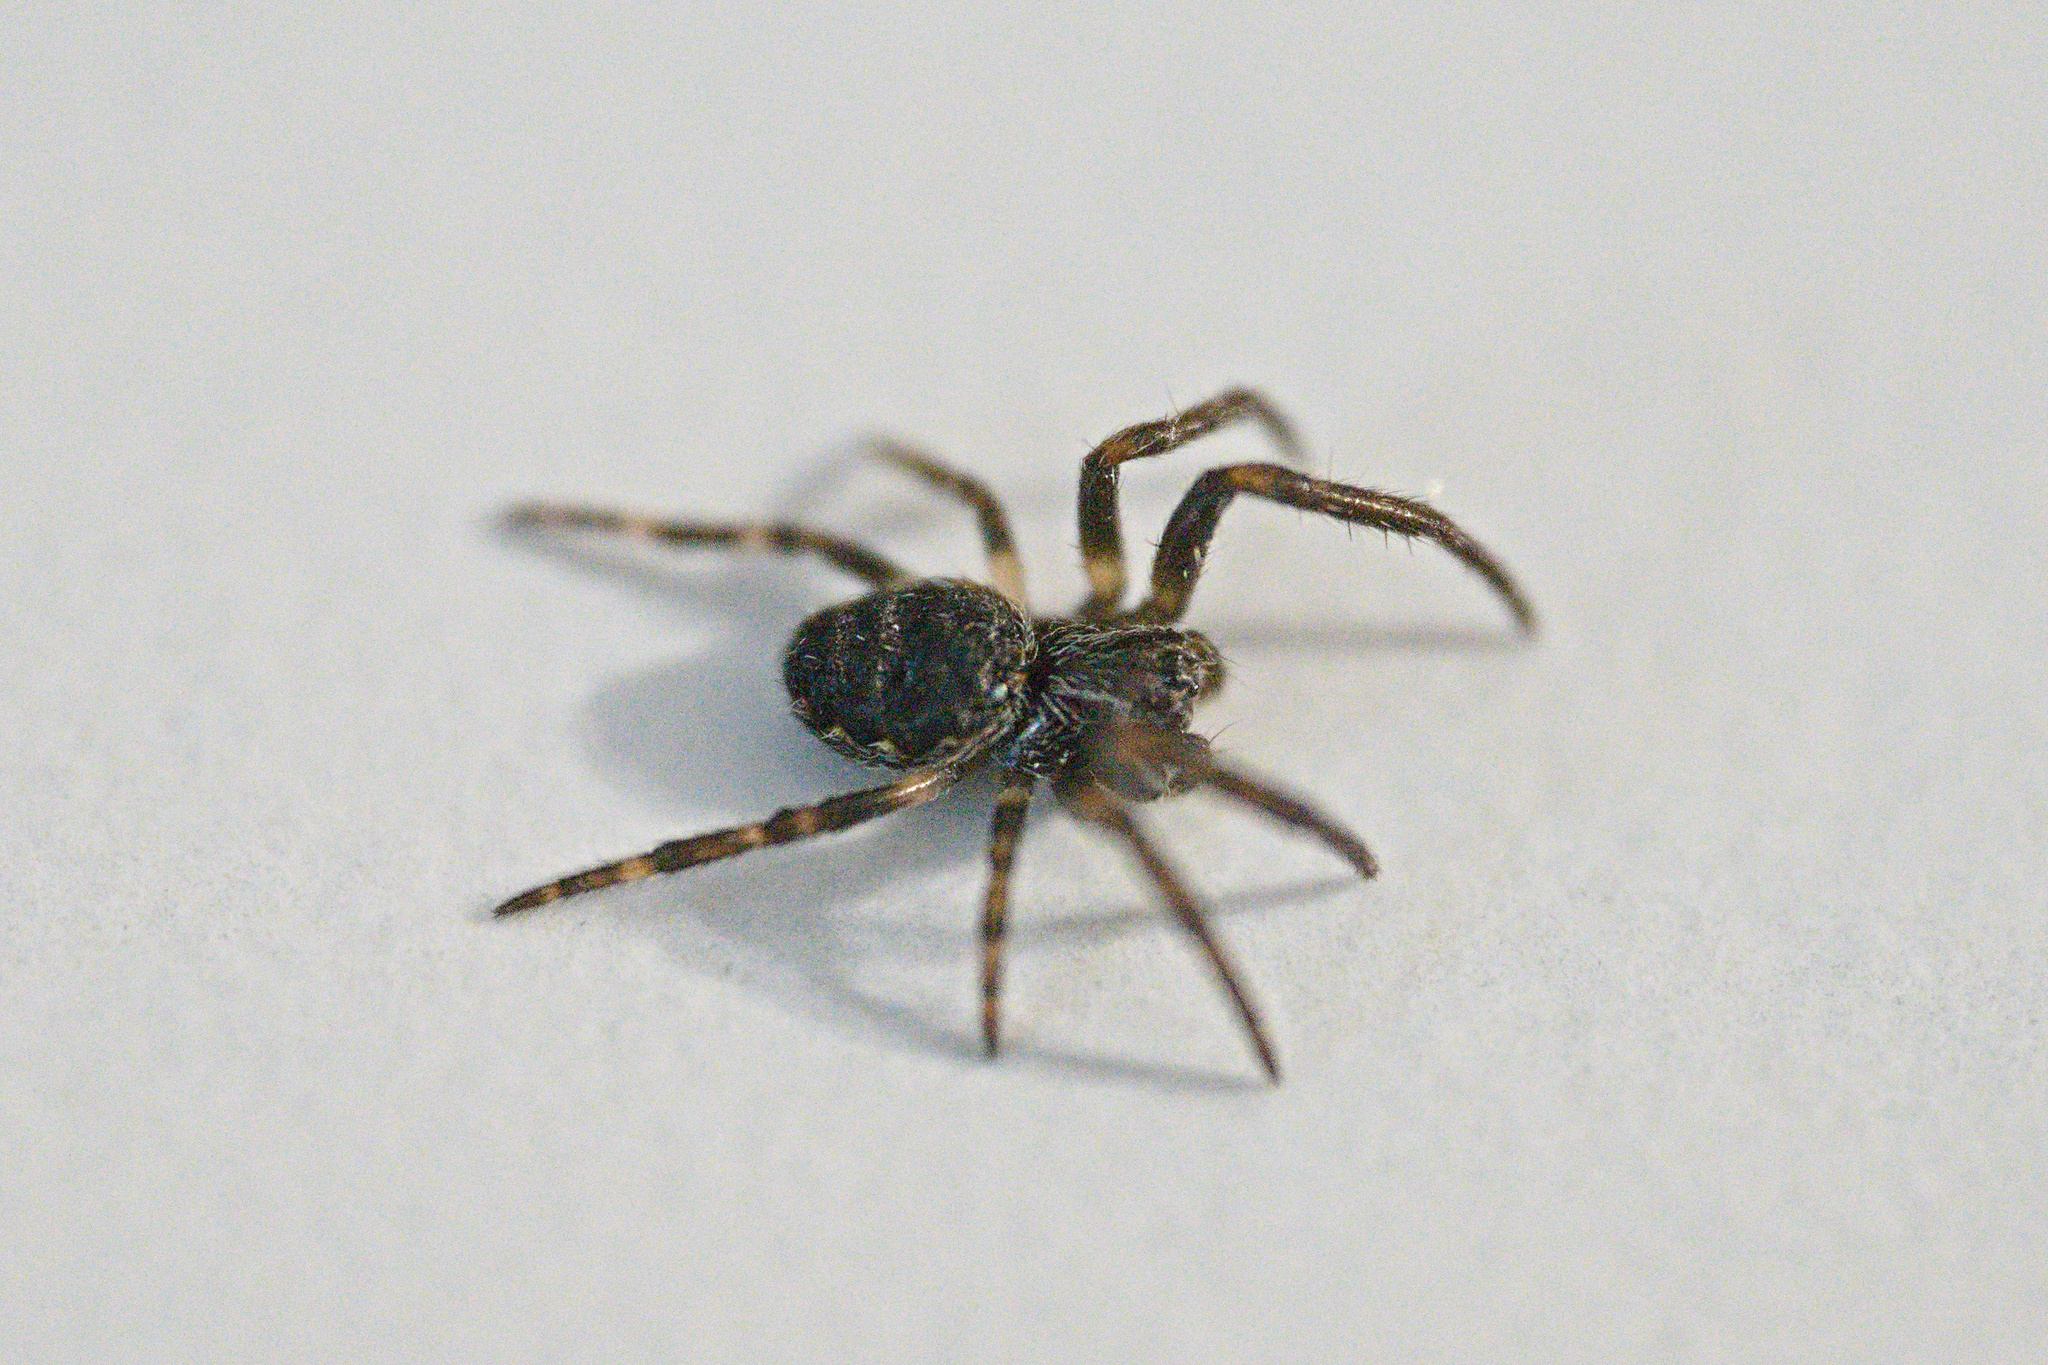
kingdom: Animalia
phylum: Arthropoda
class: Arachnida
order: Araneae
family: Araneidae
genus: Nuctenea
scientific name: Nuctenea umbratica
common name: Toad spider
